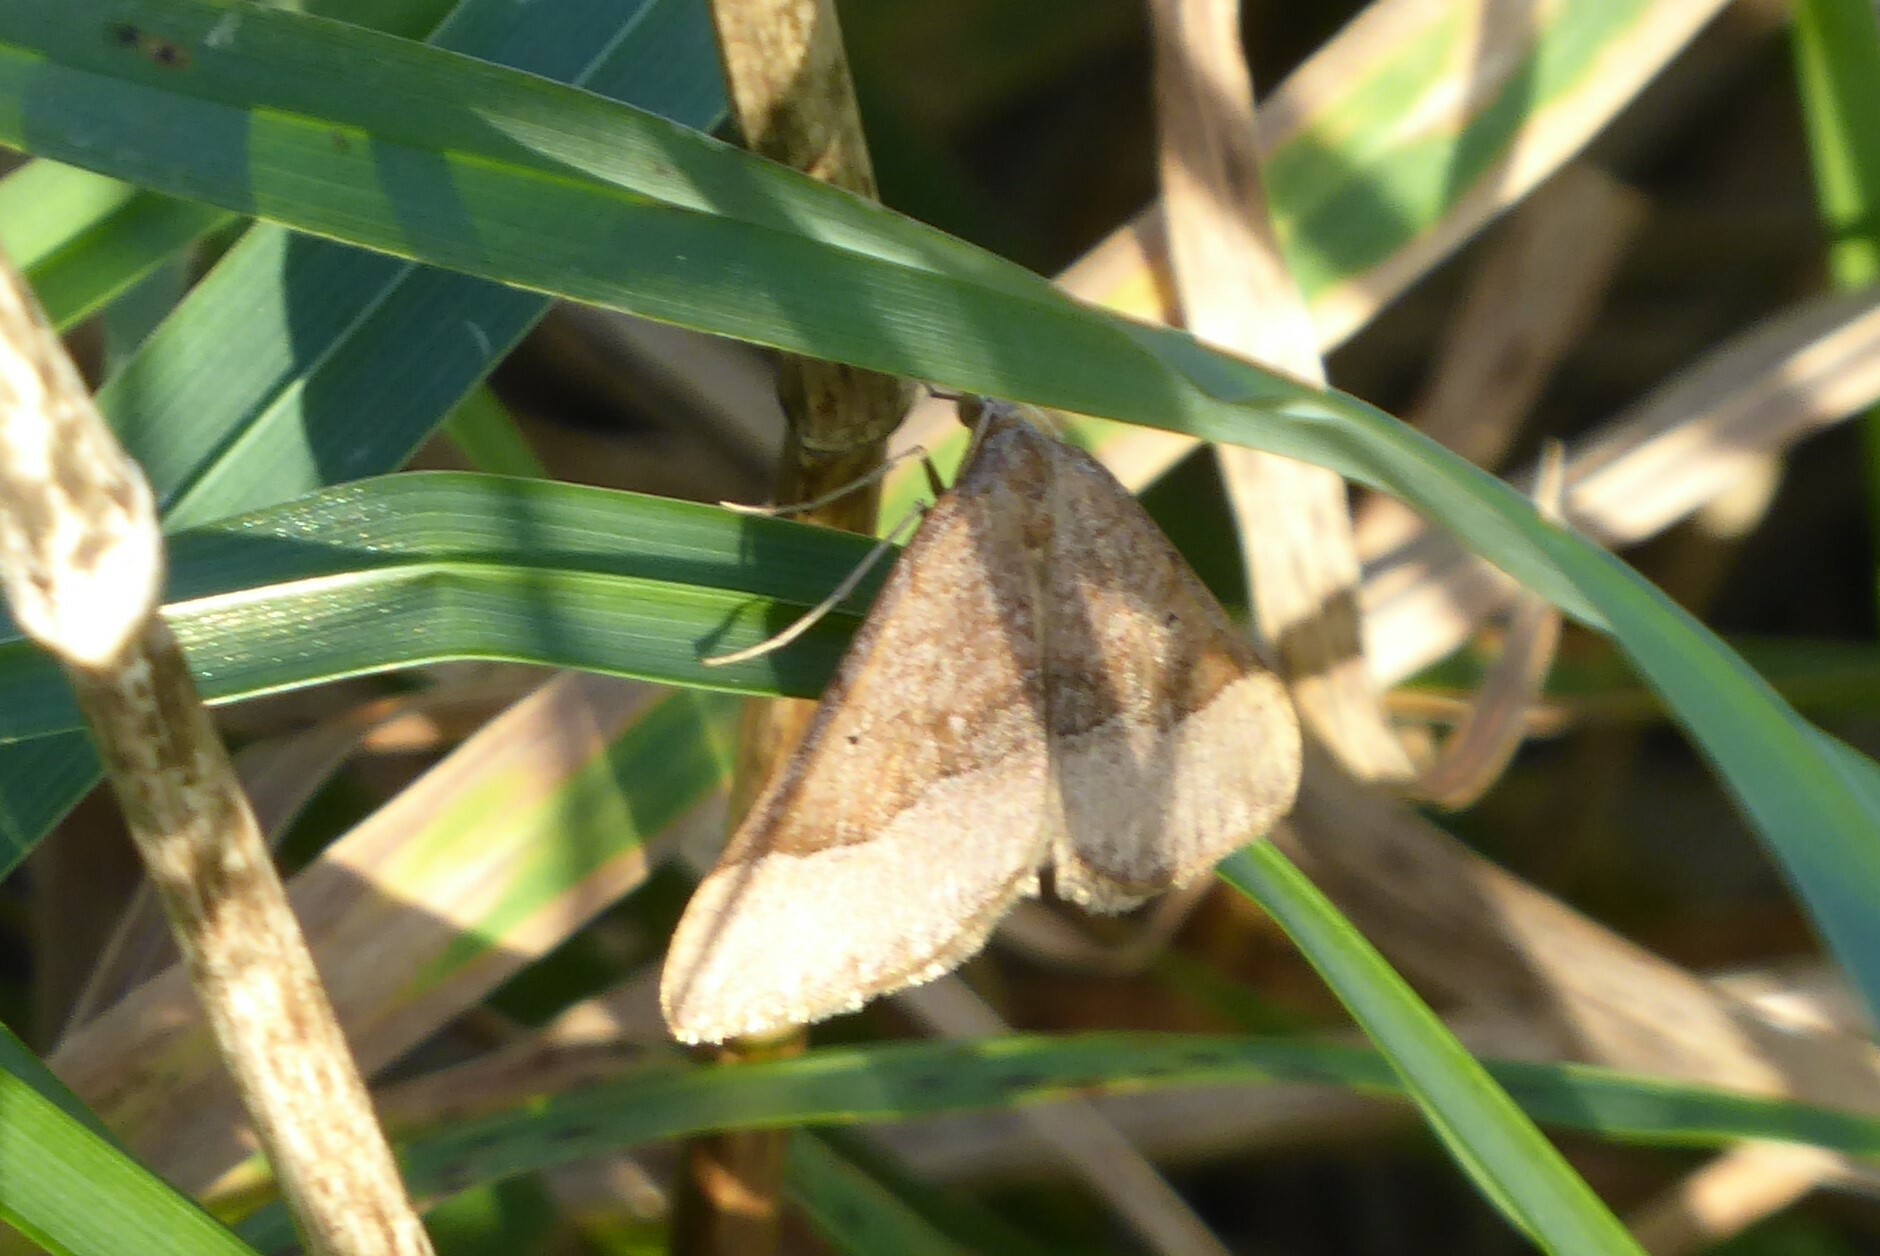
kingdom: Animalia
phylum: Arthropoda
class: Insecta
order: Lepidoptera
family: Geometridae
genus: Anachloris
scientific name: Anachloris subochraria
